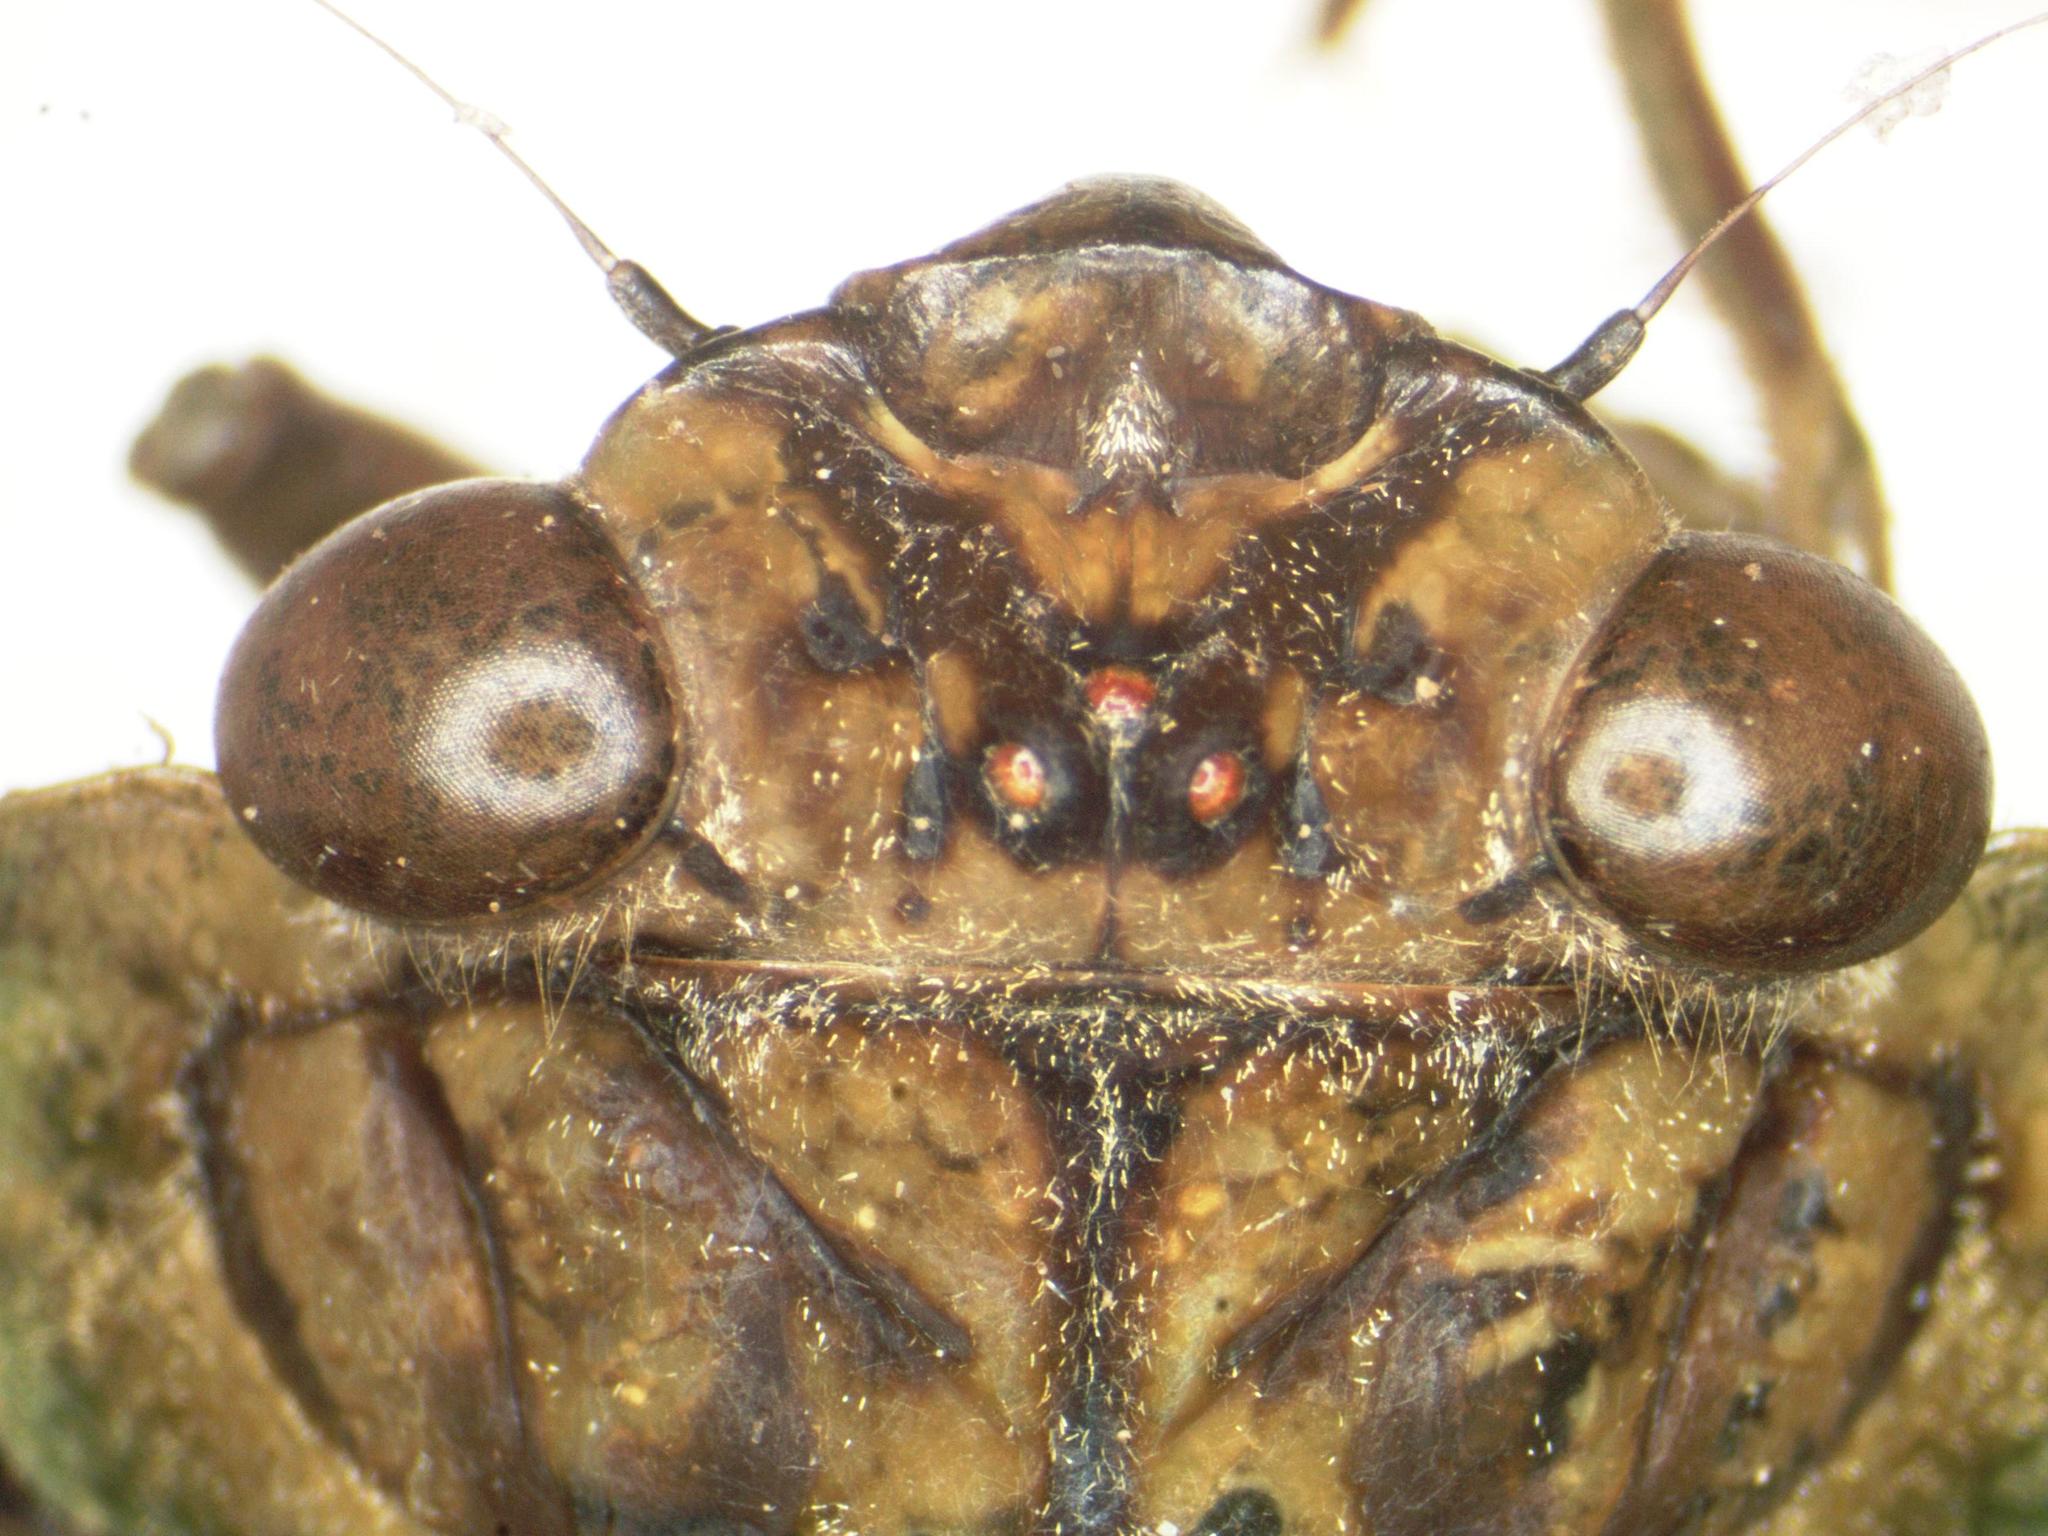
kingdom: Animalia
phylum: Arthropoda
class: Insecta
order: Hemiptera
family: Cicadidae
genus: Zammara
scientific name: Zammara smaragdina
